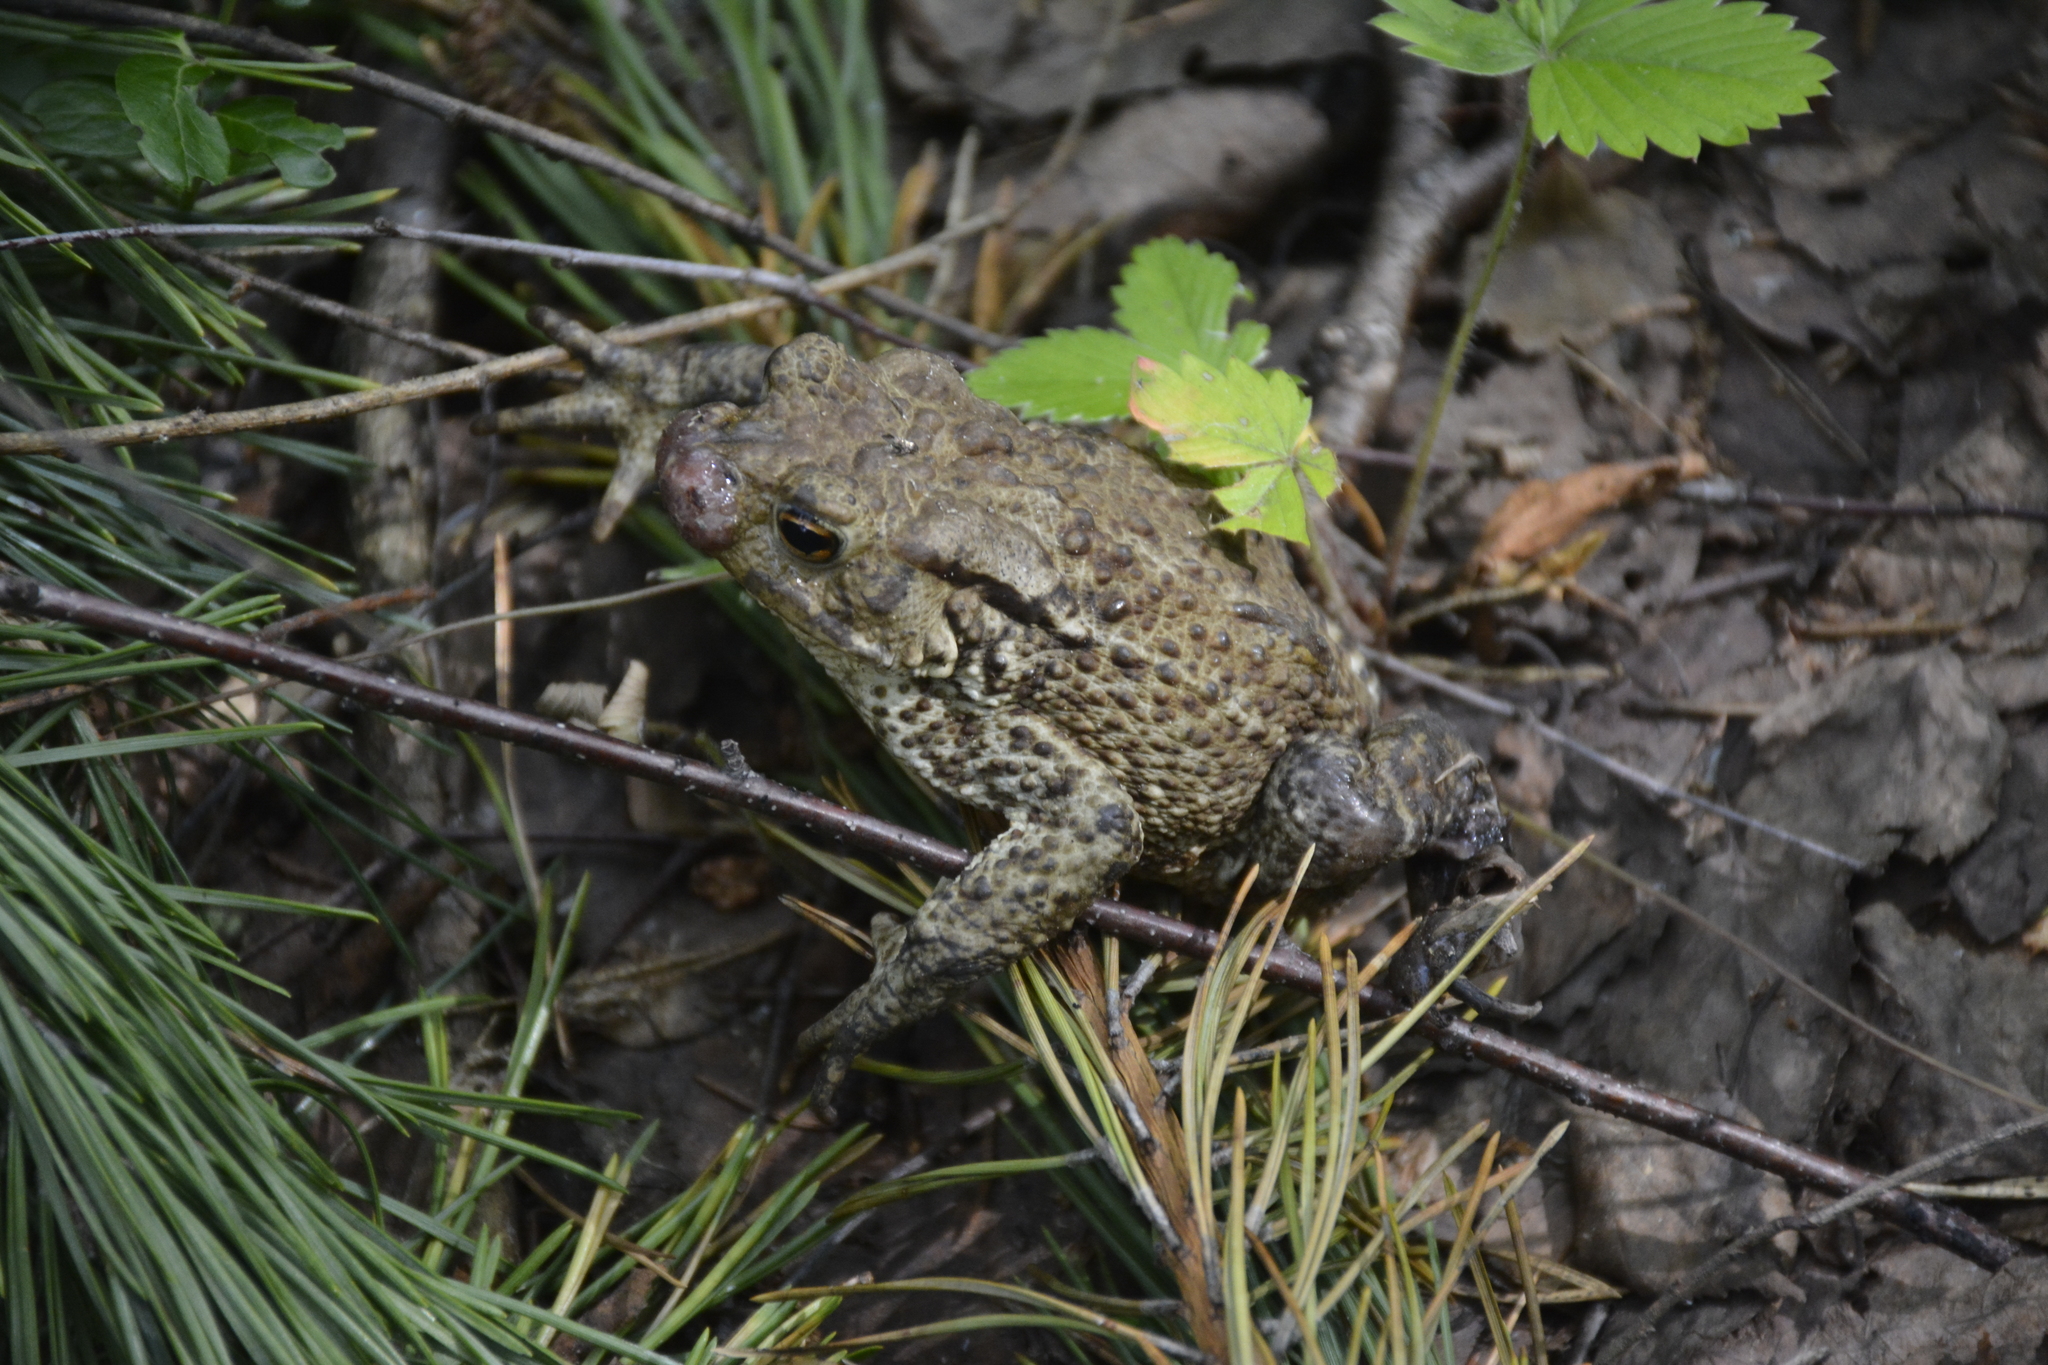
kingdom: Animalia
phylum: Chordata
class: Amphibia
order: Anura
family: Bufonidae
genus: Bufo
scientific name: Bufo bufo
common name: Common toad
